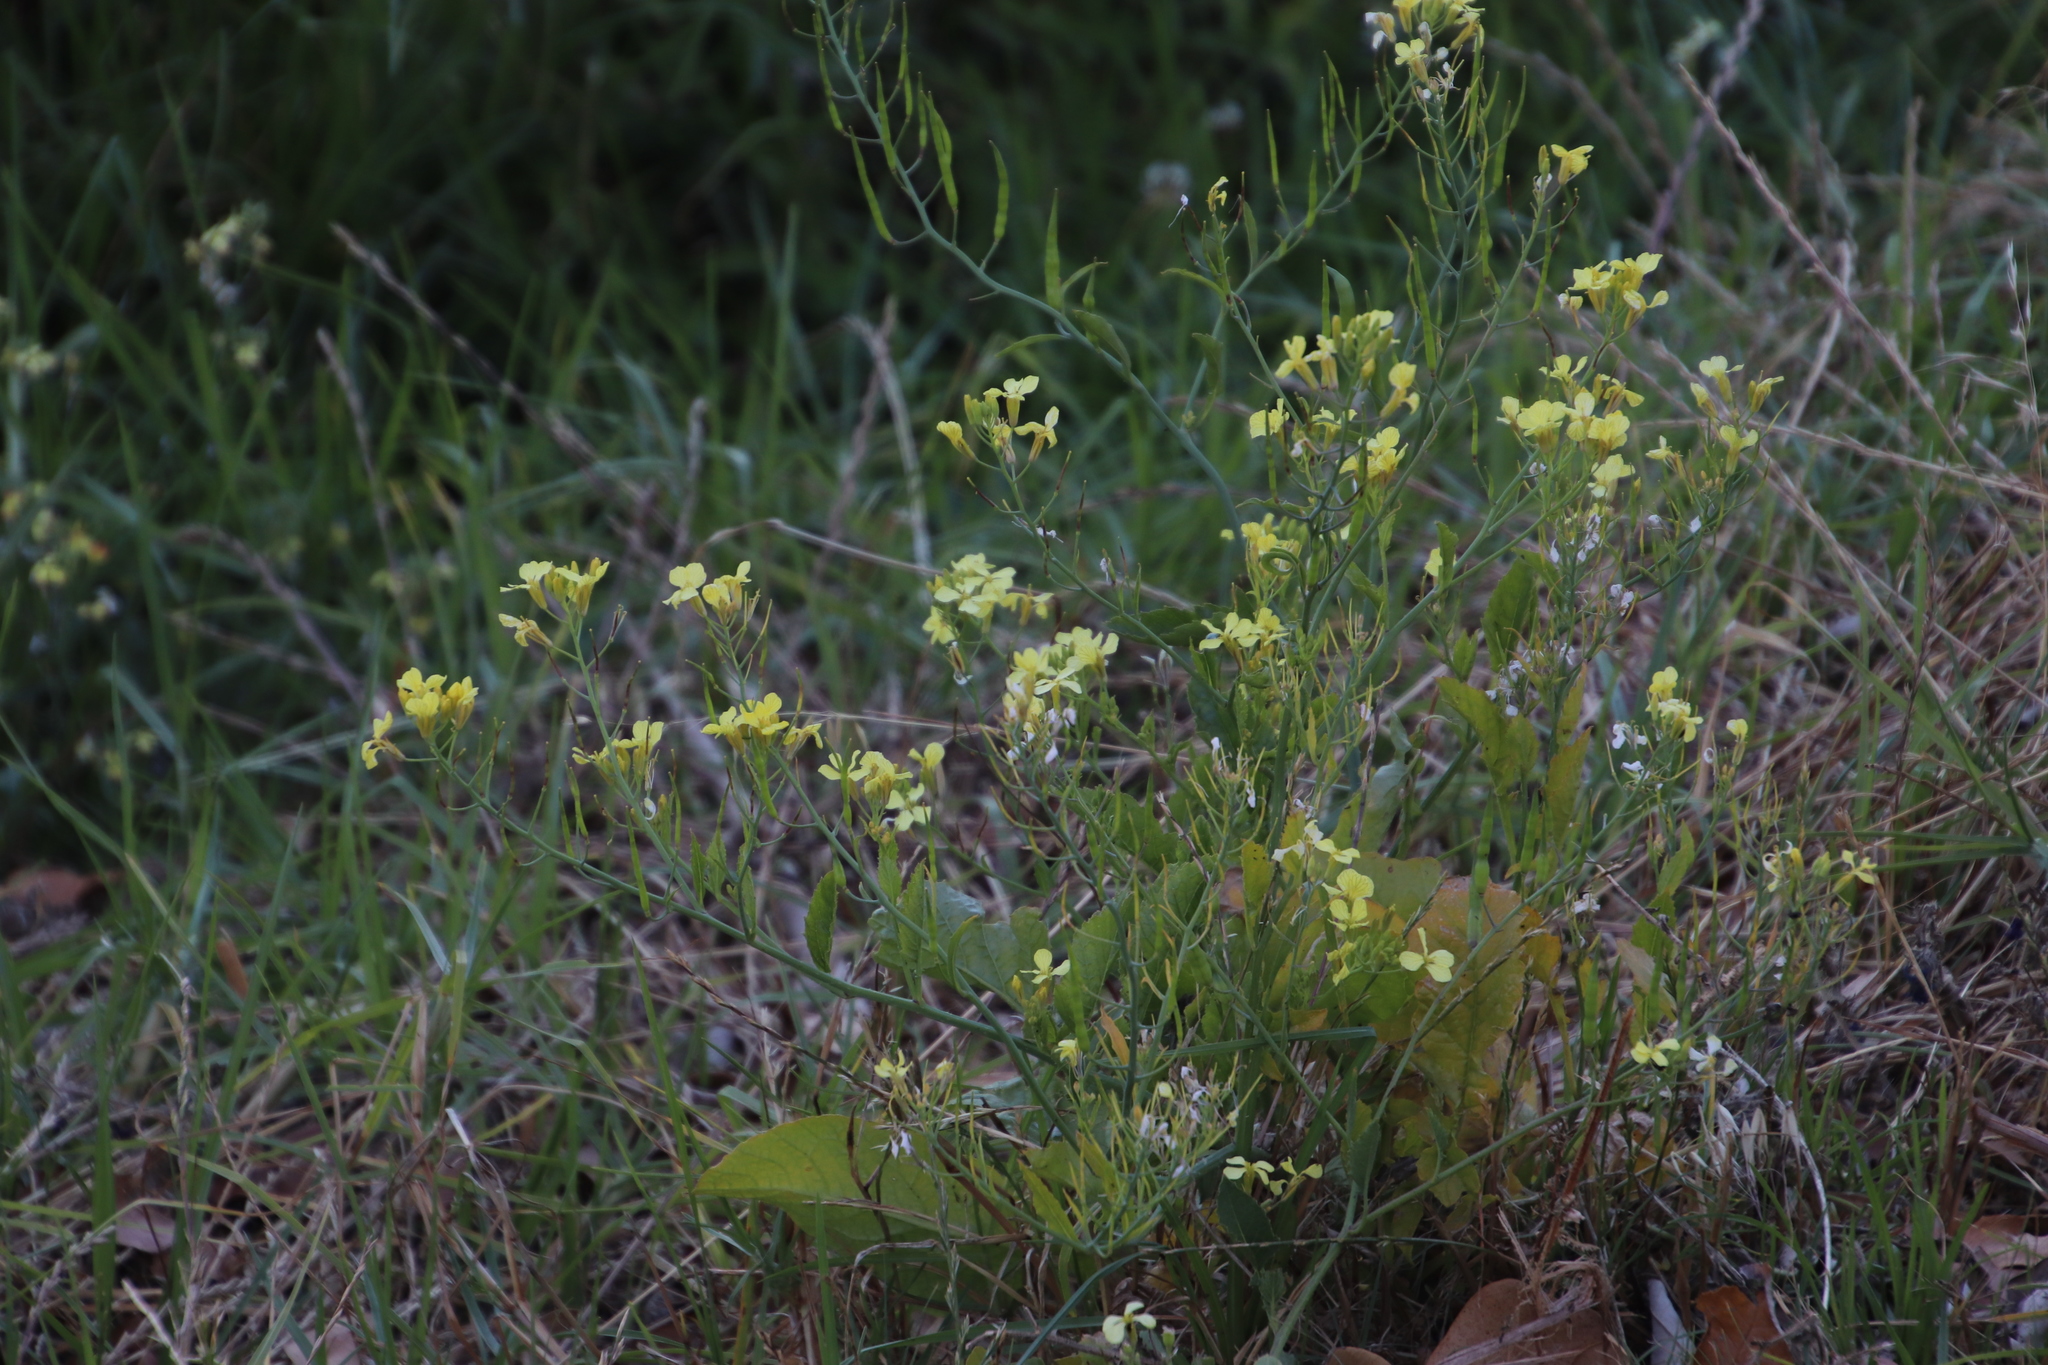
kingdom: Plantae
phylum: Tracheophyta
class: Magnoliopsida
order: Brassicales
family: Brassicaceae
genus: Raphanus
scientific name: Raphanus raphanistrum
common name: Wild radish
